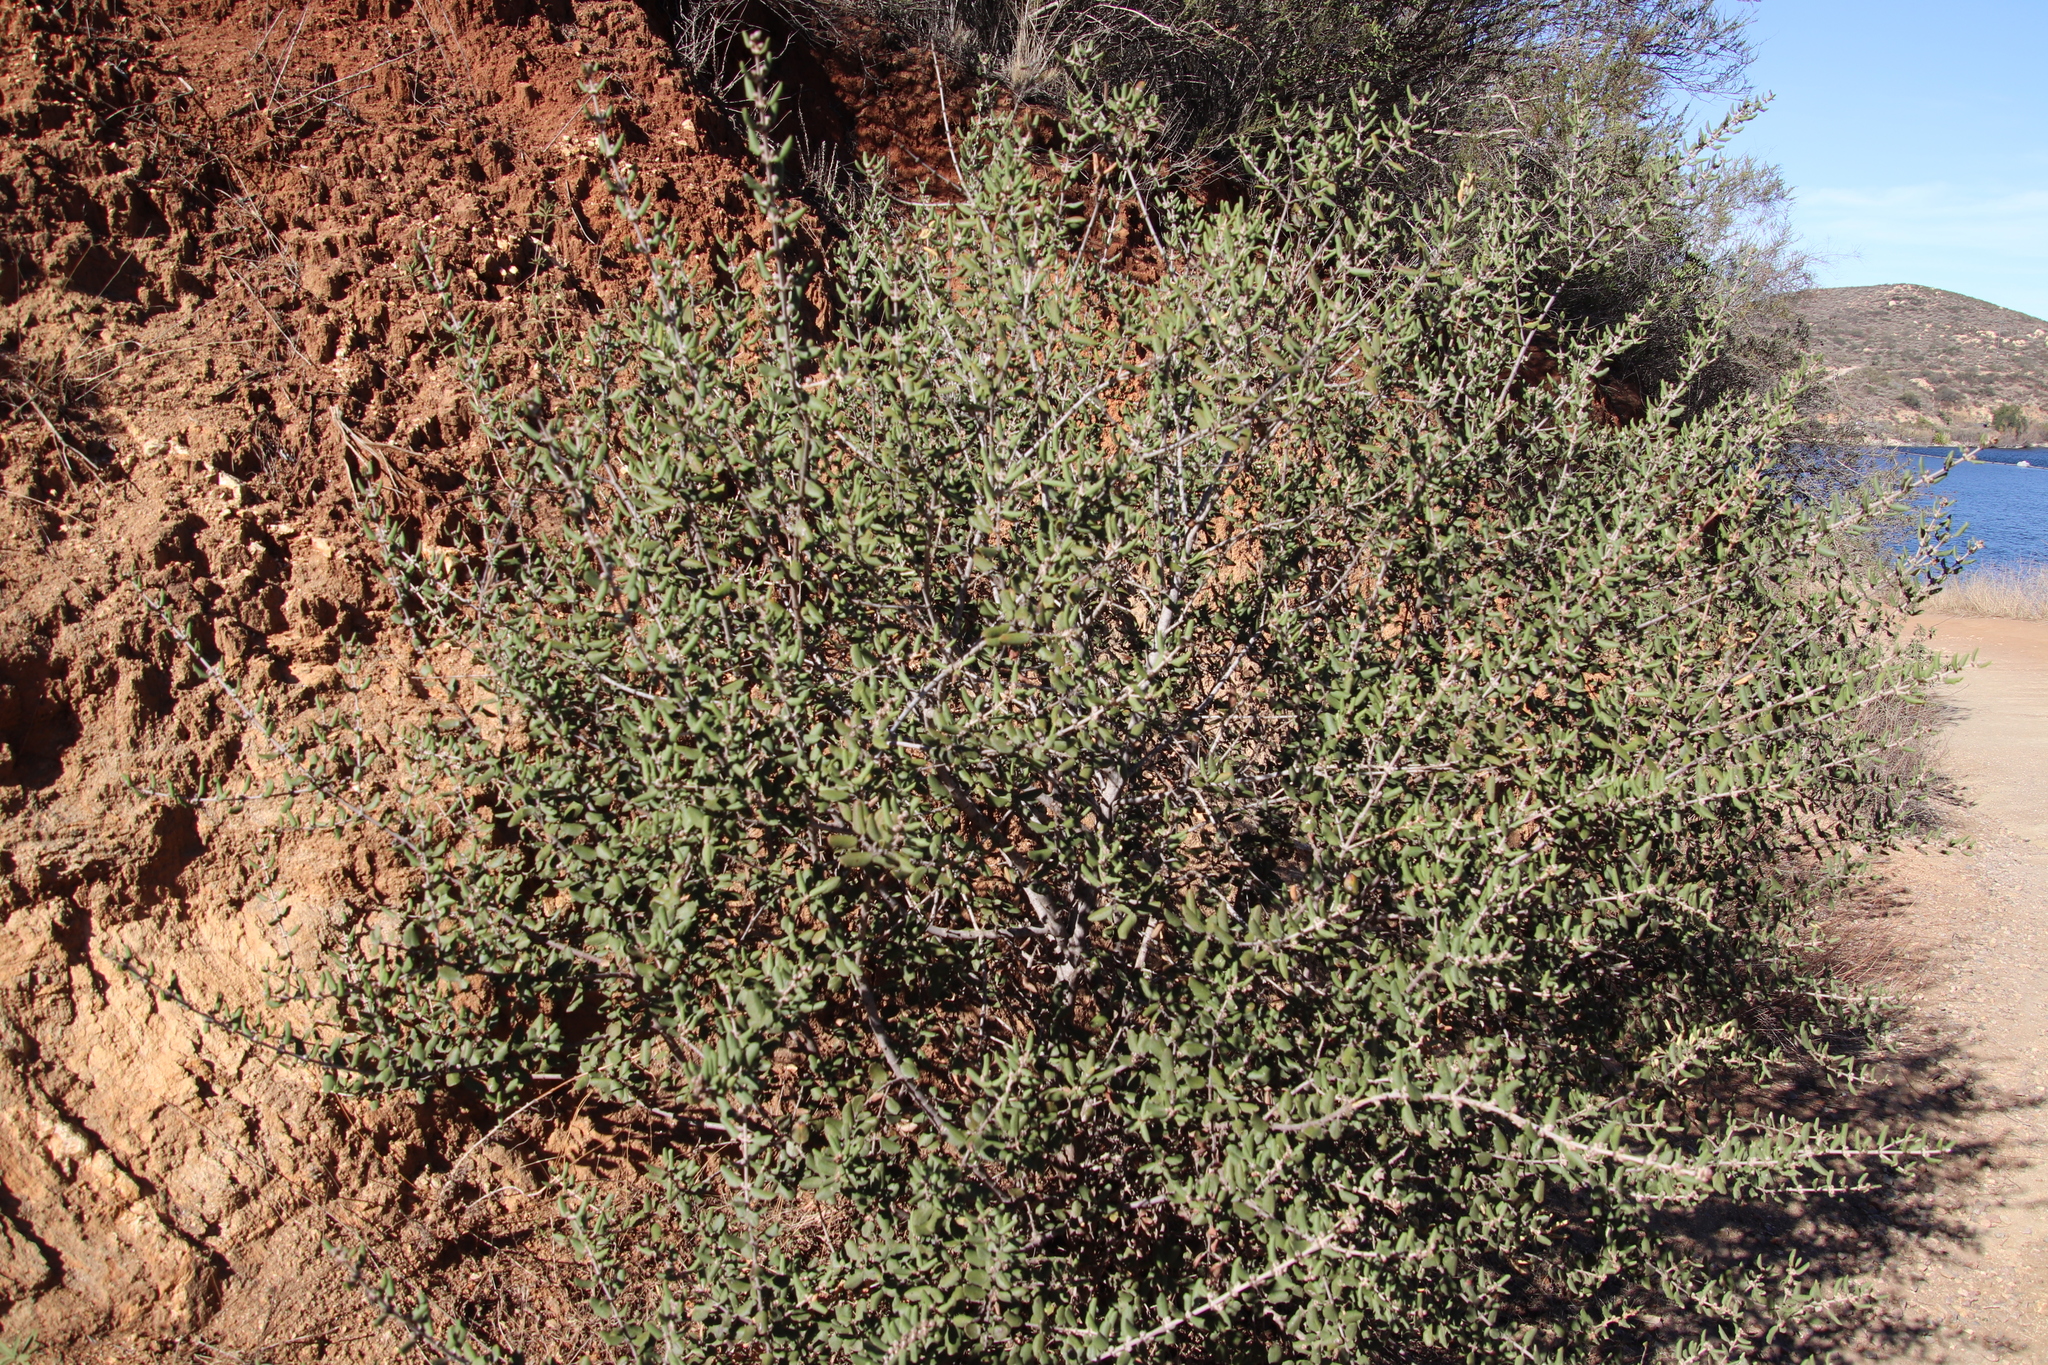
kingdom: Plantae
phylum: Tracheophyta
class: Magnoliopsida
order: Rosales
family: Rhamnaceae
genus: Ceanothus
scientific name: Ceanothus crassifolius
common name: Hoaryleaf ceanothus
